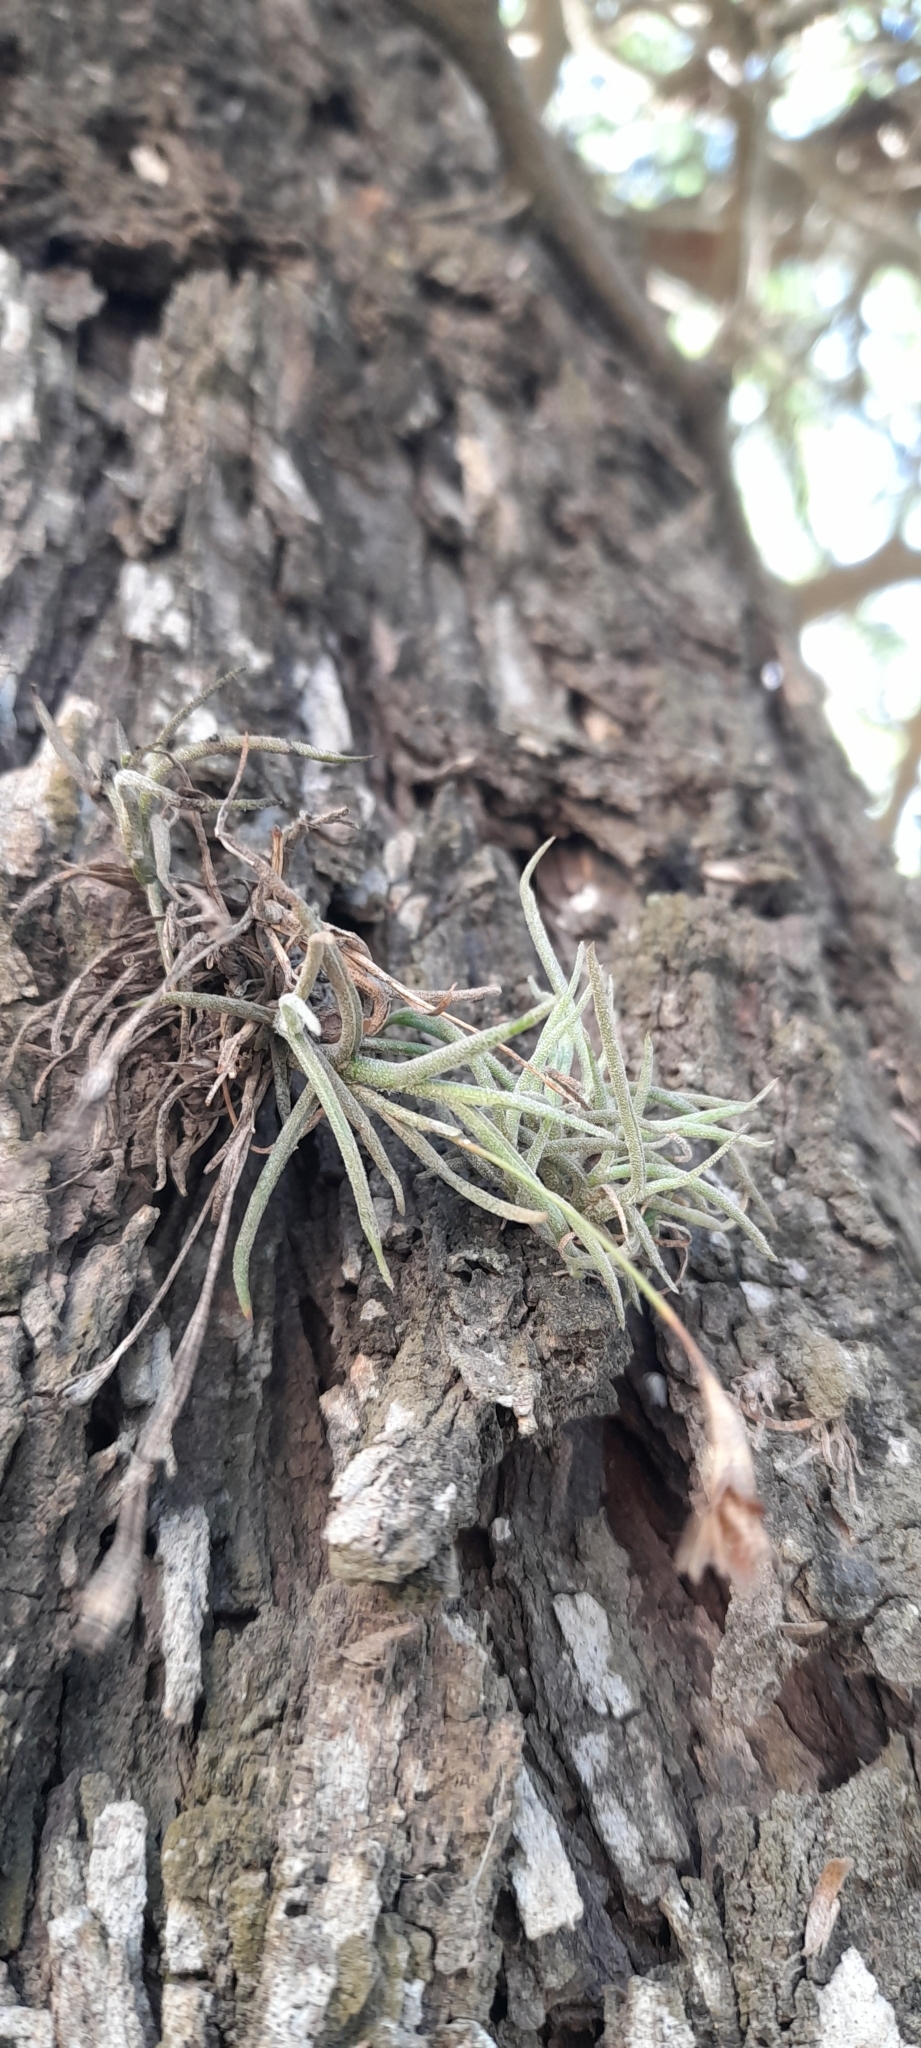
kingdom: Plantae
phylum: Tracheophyta
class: Liliopsida
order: Poales
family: Bromeliaceae
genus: Tillandsia
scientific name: Tillandsia recurvata
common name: Small ballmoss
